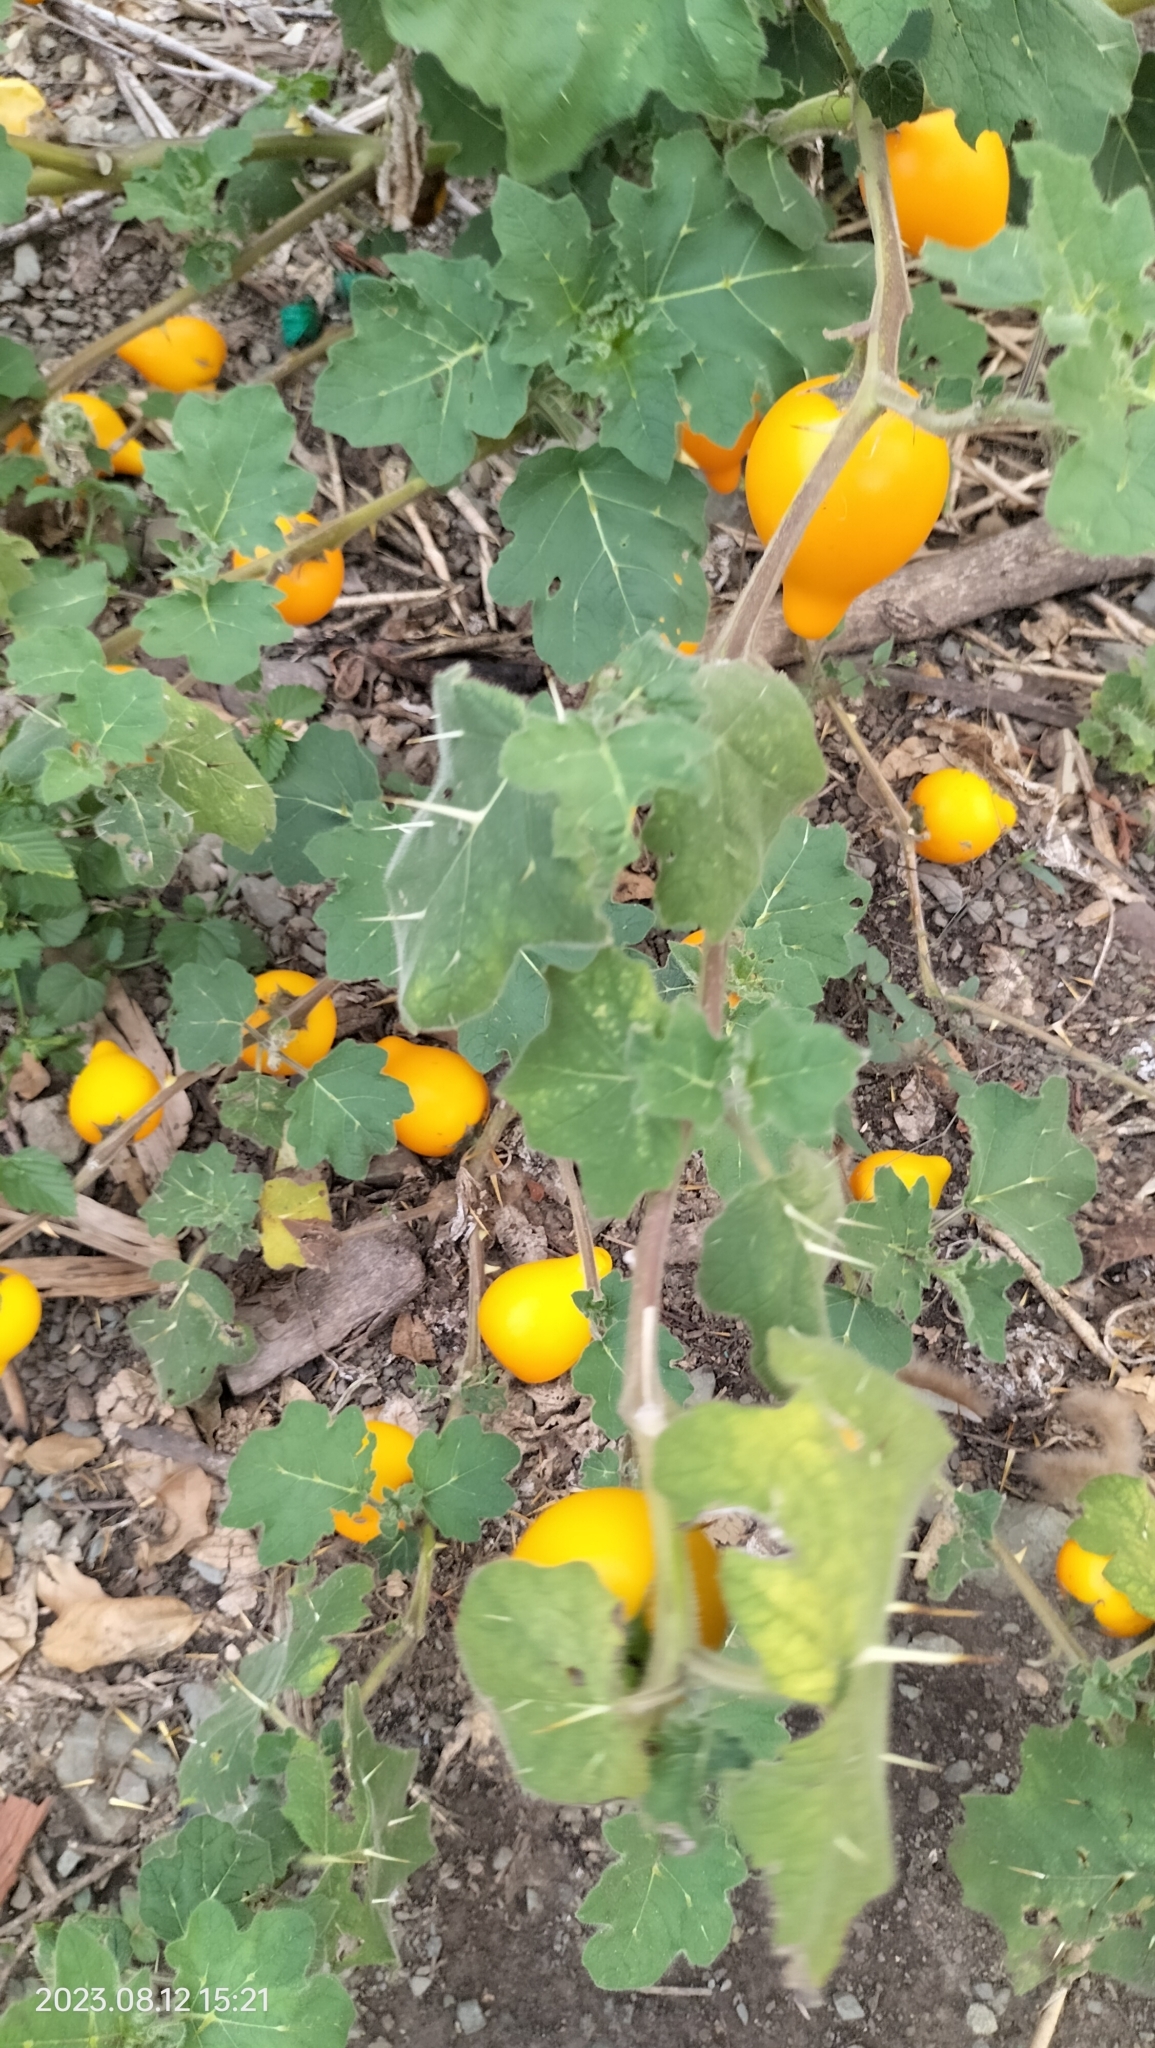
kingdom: Plantae
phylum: Tracheophyta
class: Magnoliopsida
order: Solanales
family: Solanaceae
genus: Solanum
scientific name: Solanum mammosum
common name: Nipple fruit
